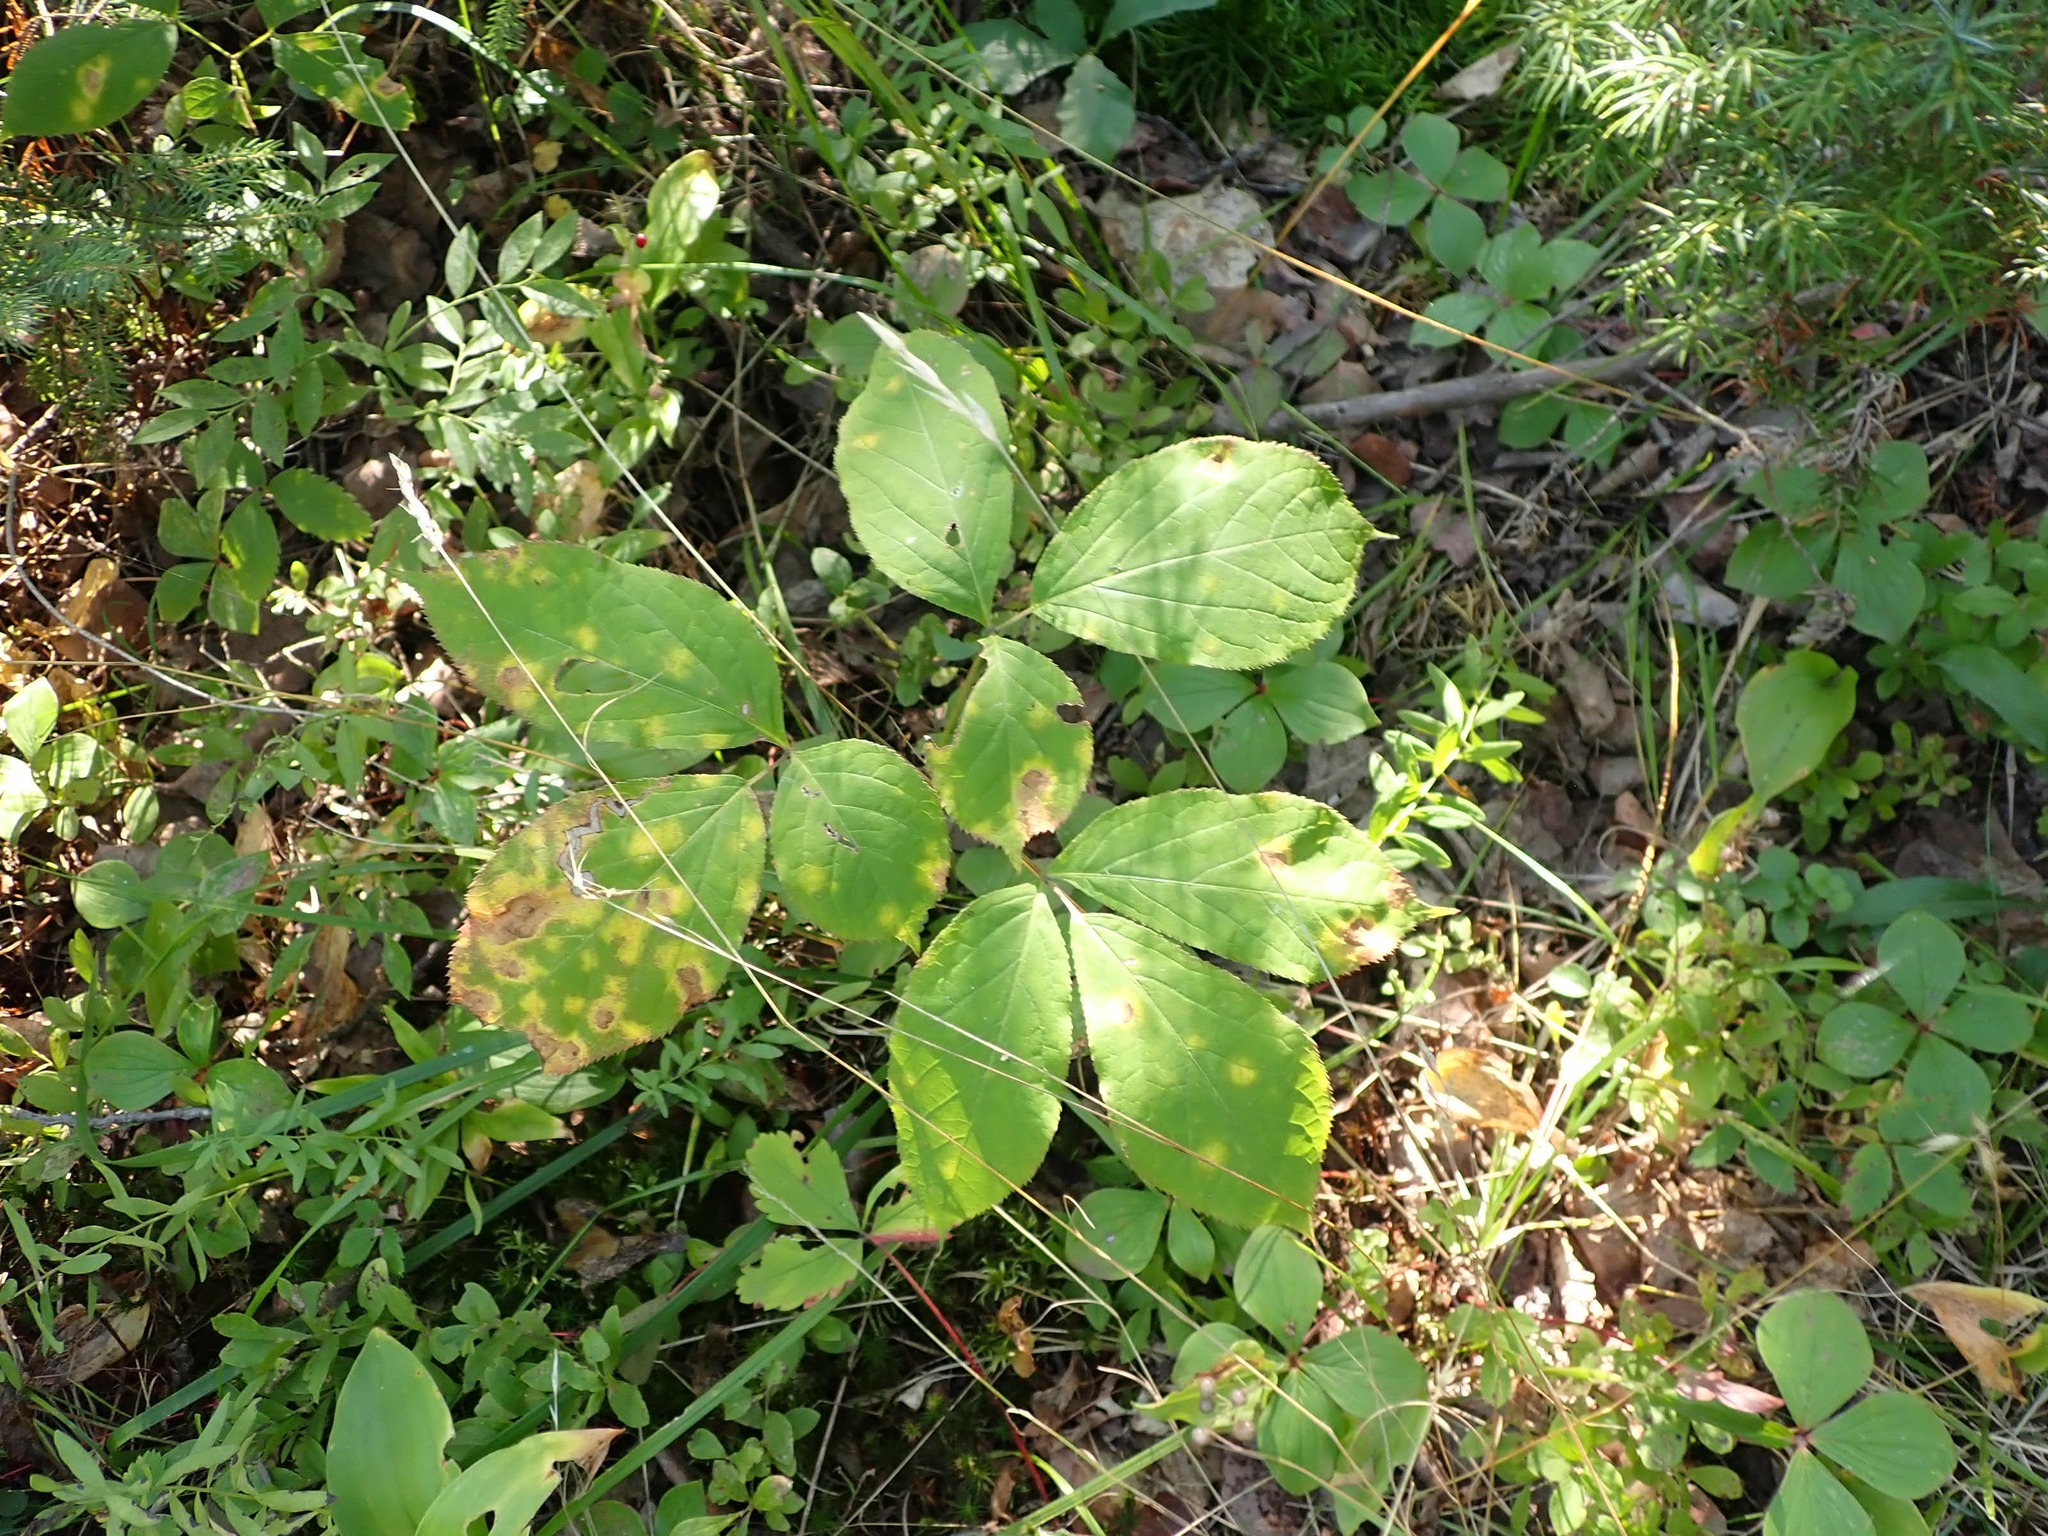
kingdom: Plantae
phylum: Tracheophyta
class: Magnoliopsida
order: Apiales
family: Araliaceae
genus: Aralia
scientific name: Aralia nudicaulis
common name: Wild sarsaparilla
